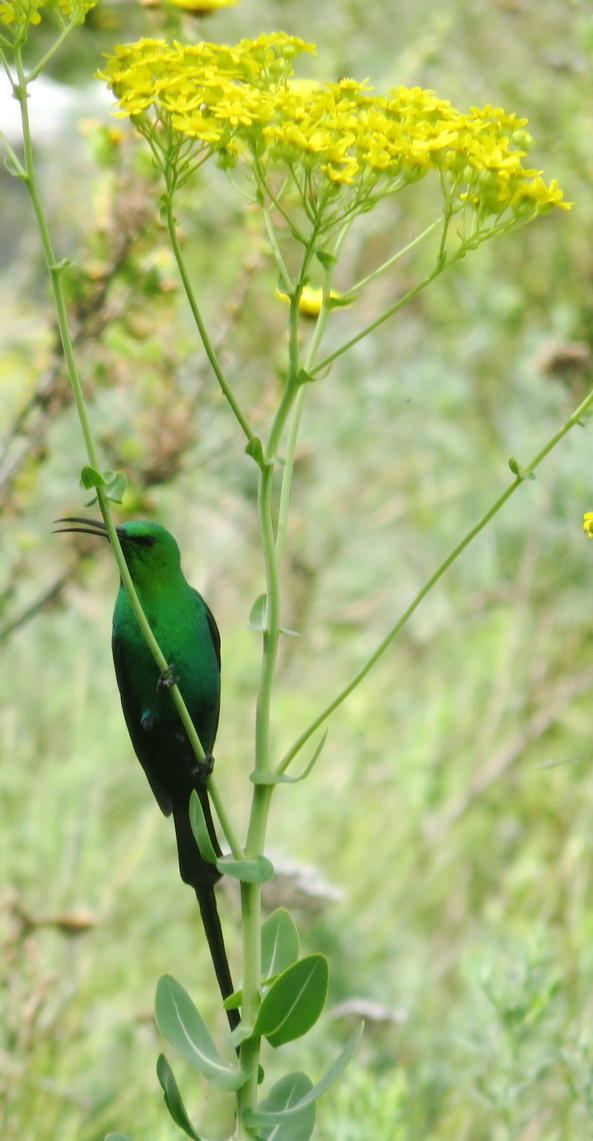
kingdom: Animalia
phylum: Chordata
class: Aves
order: Passeriformes
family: Nectariniidae
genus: Nectarinia
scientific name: Nectarinia famosa
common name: Malachite sunbird
